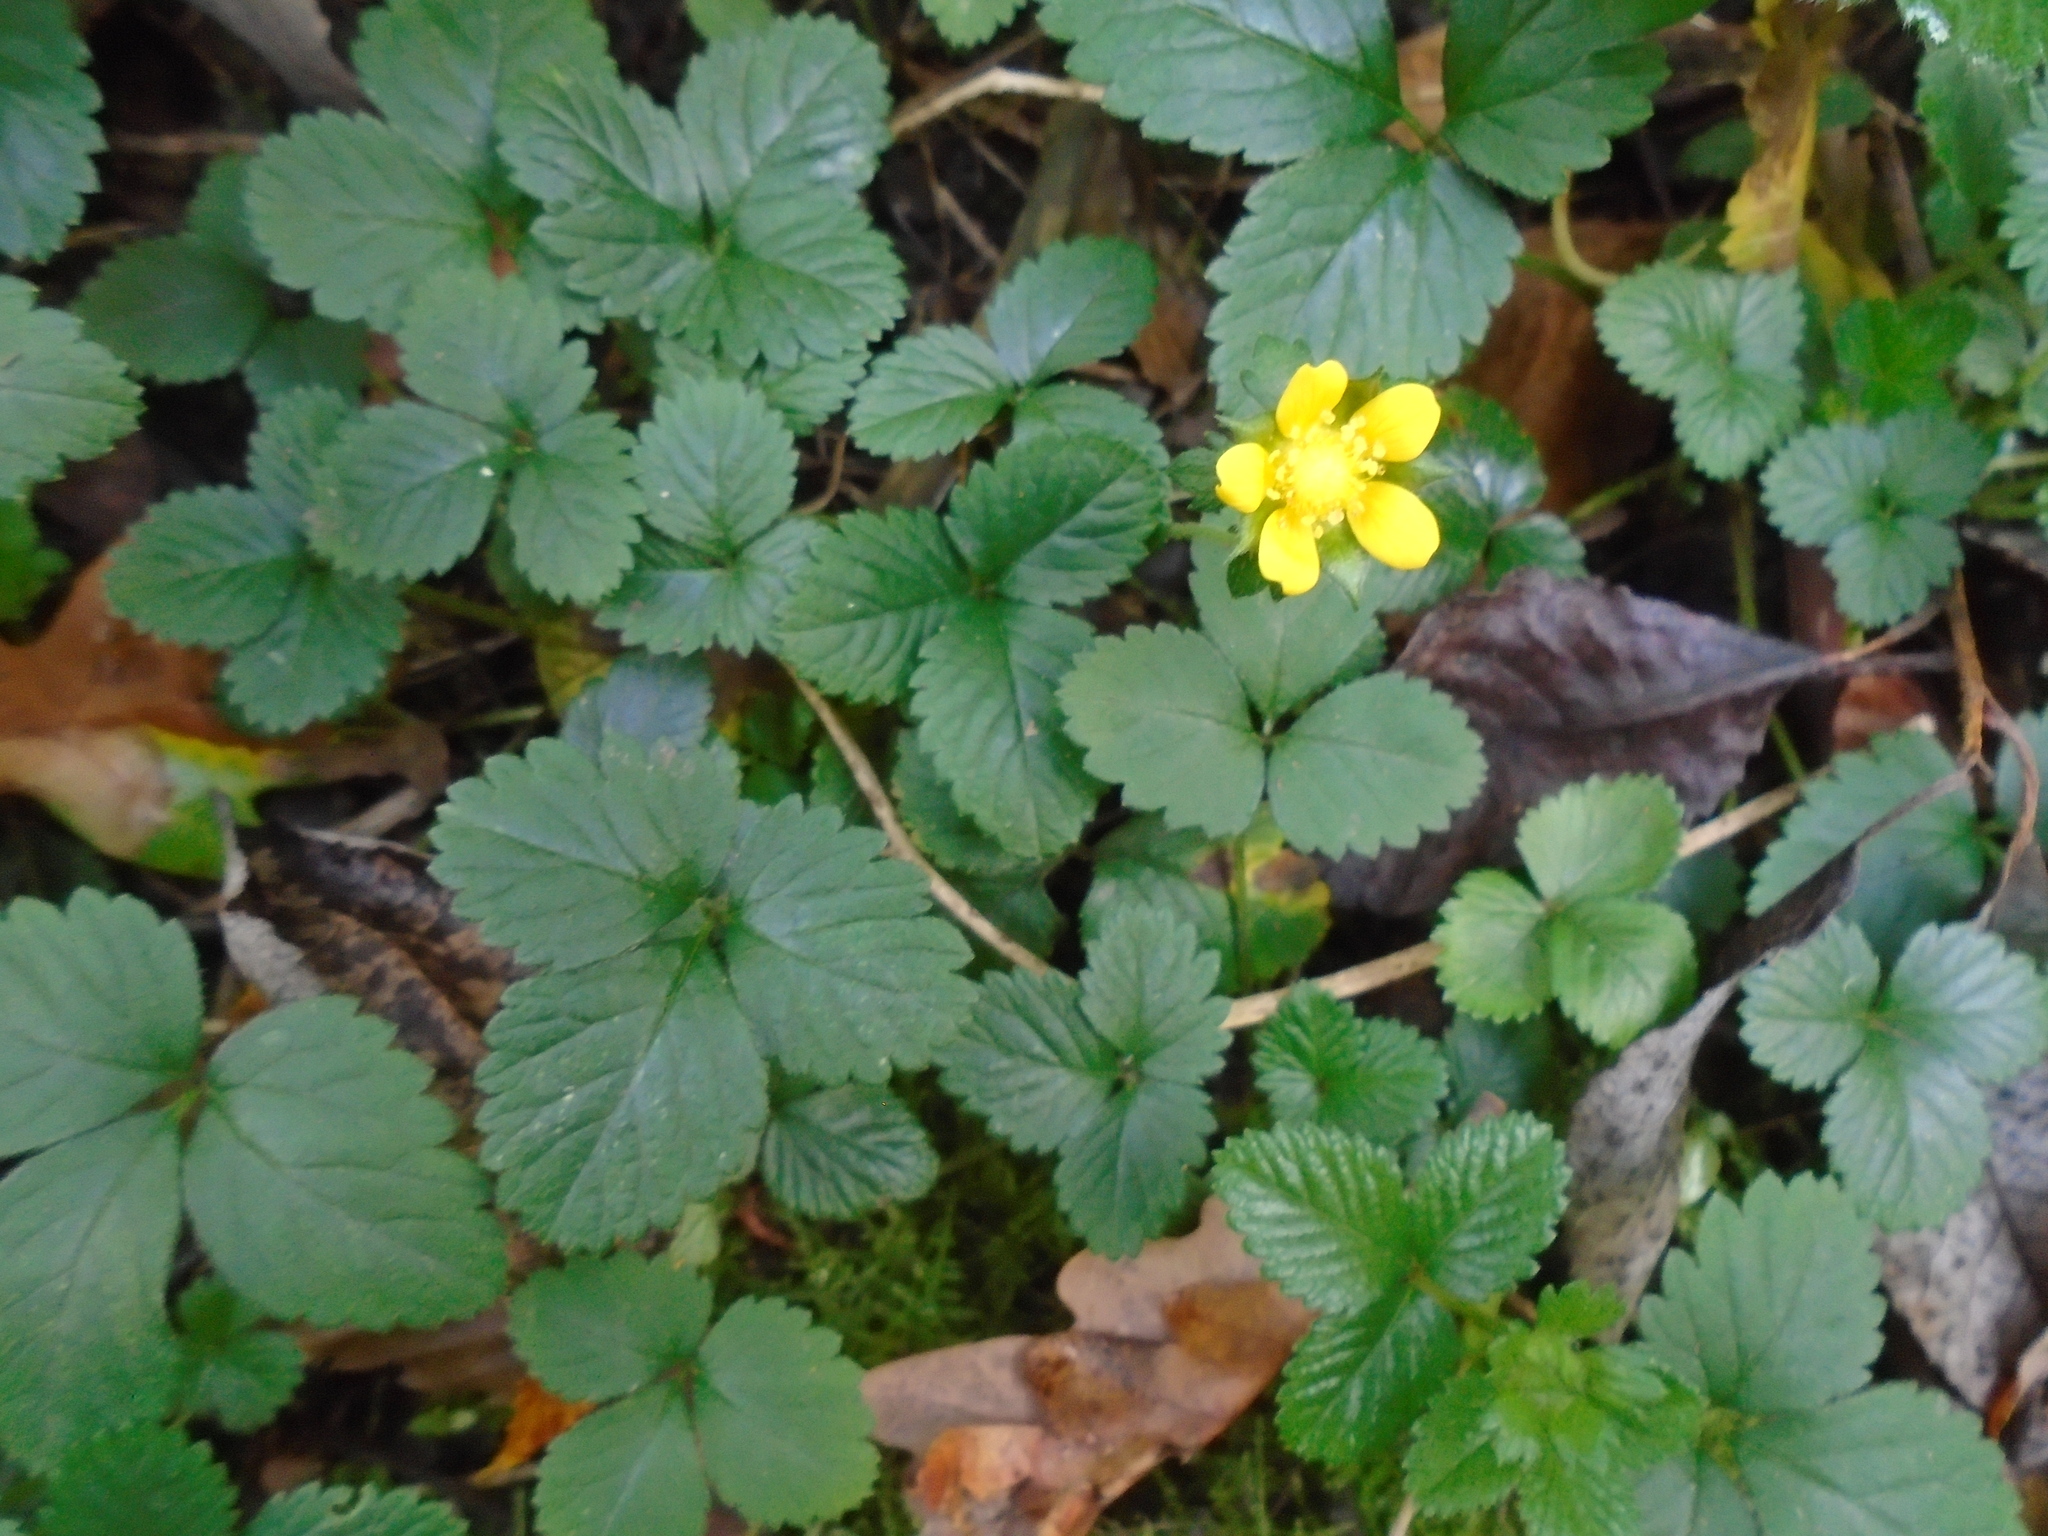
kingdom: Plantae
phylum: Tracheophyta
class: Magnoliopsida
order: Rosales
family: Rosaceae
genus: Potentilla
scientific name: Potentilla indica
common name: Yellow-flowered strawberry
